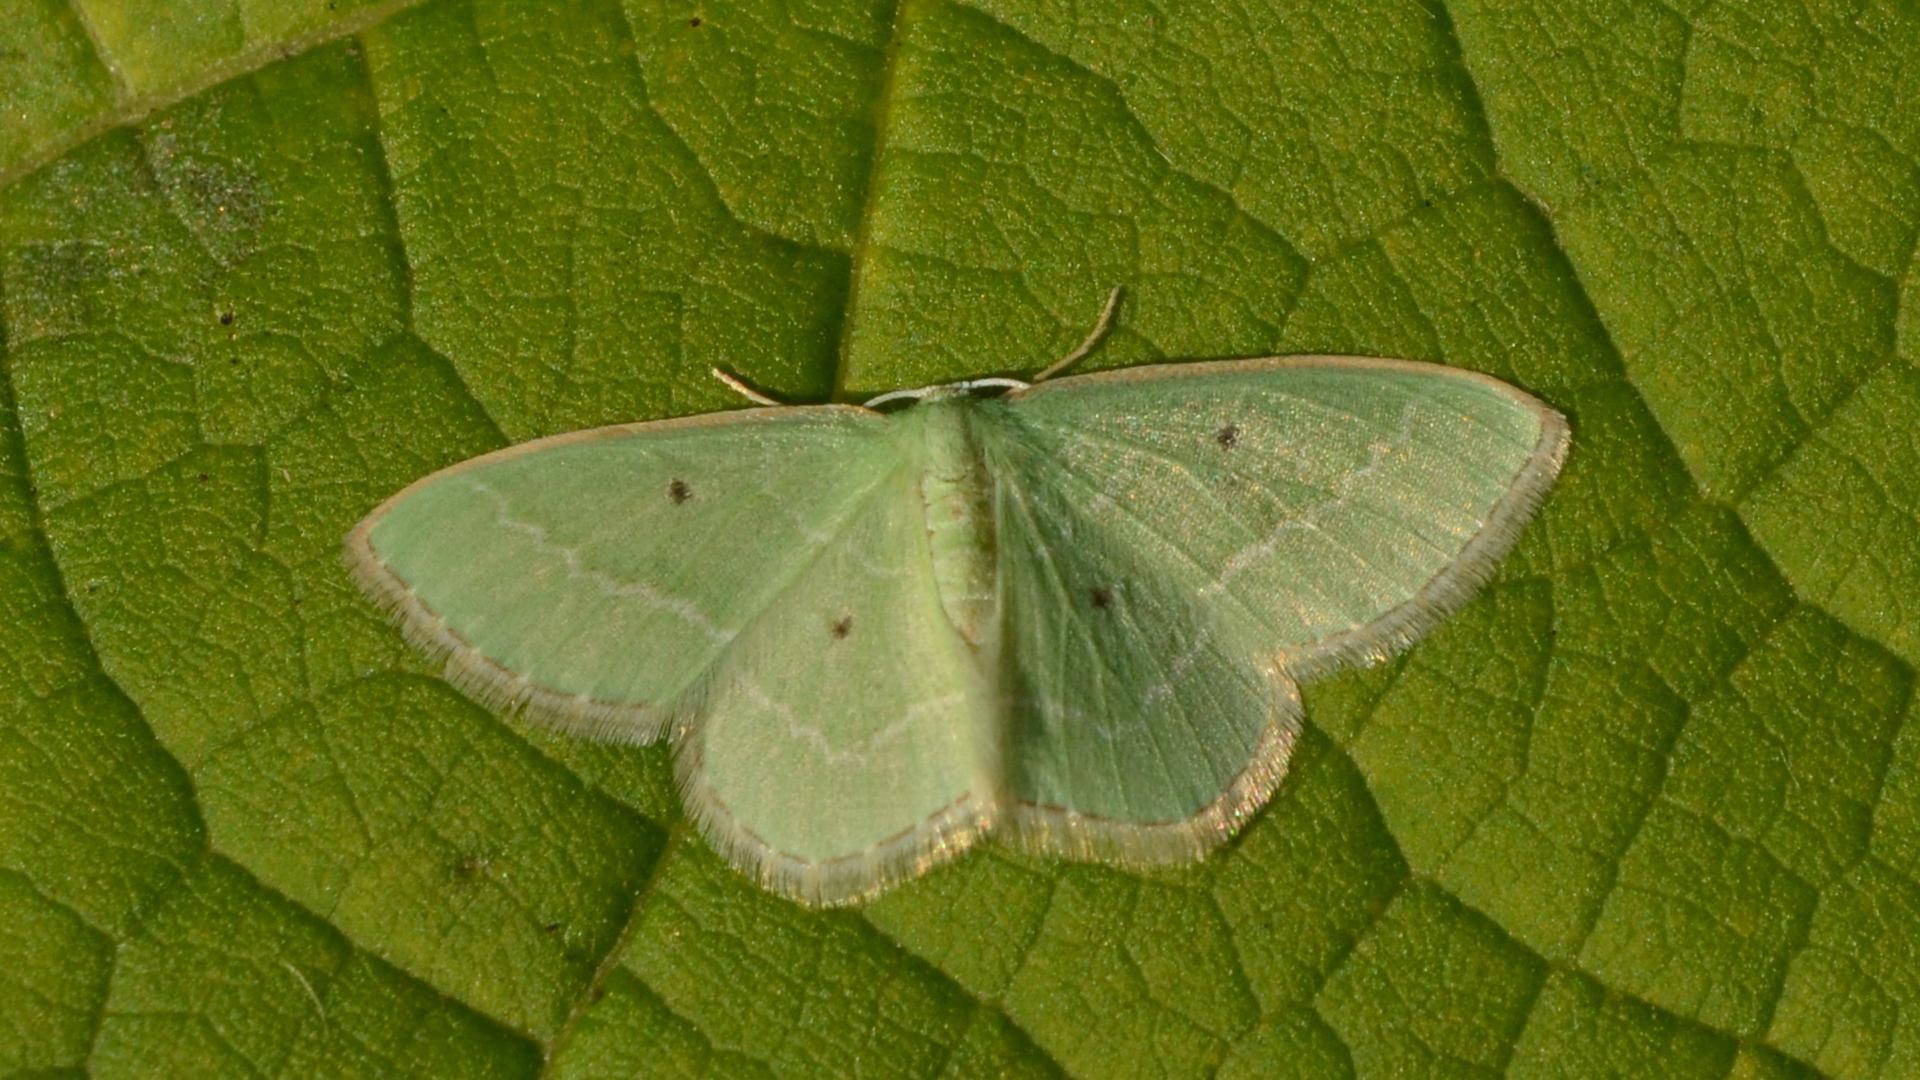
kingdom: Animalia
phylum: Arthropoda
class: Insecta
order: Lepidoptera
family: Geometridae
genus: Nemoria
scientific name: Nemoria elfa
